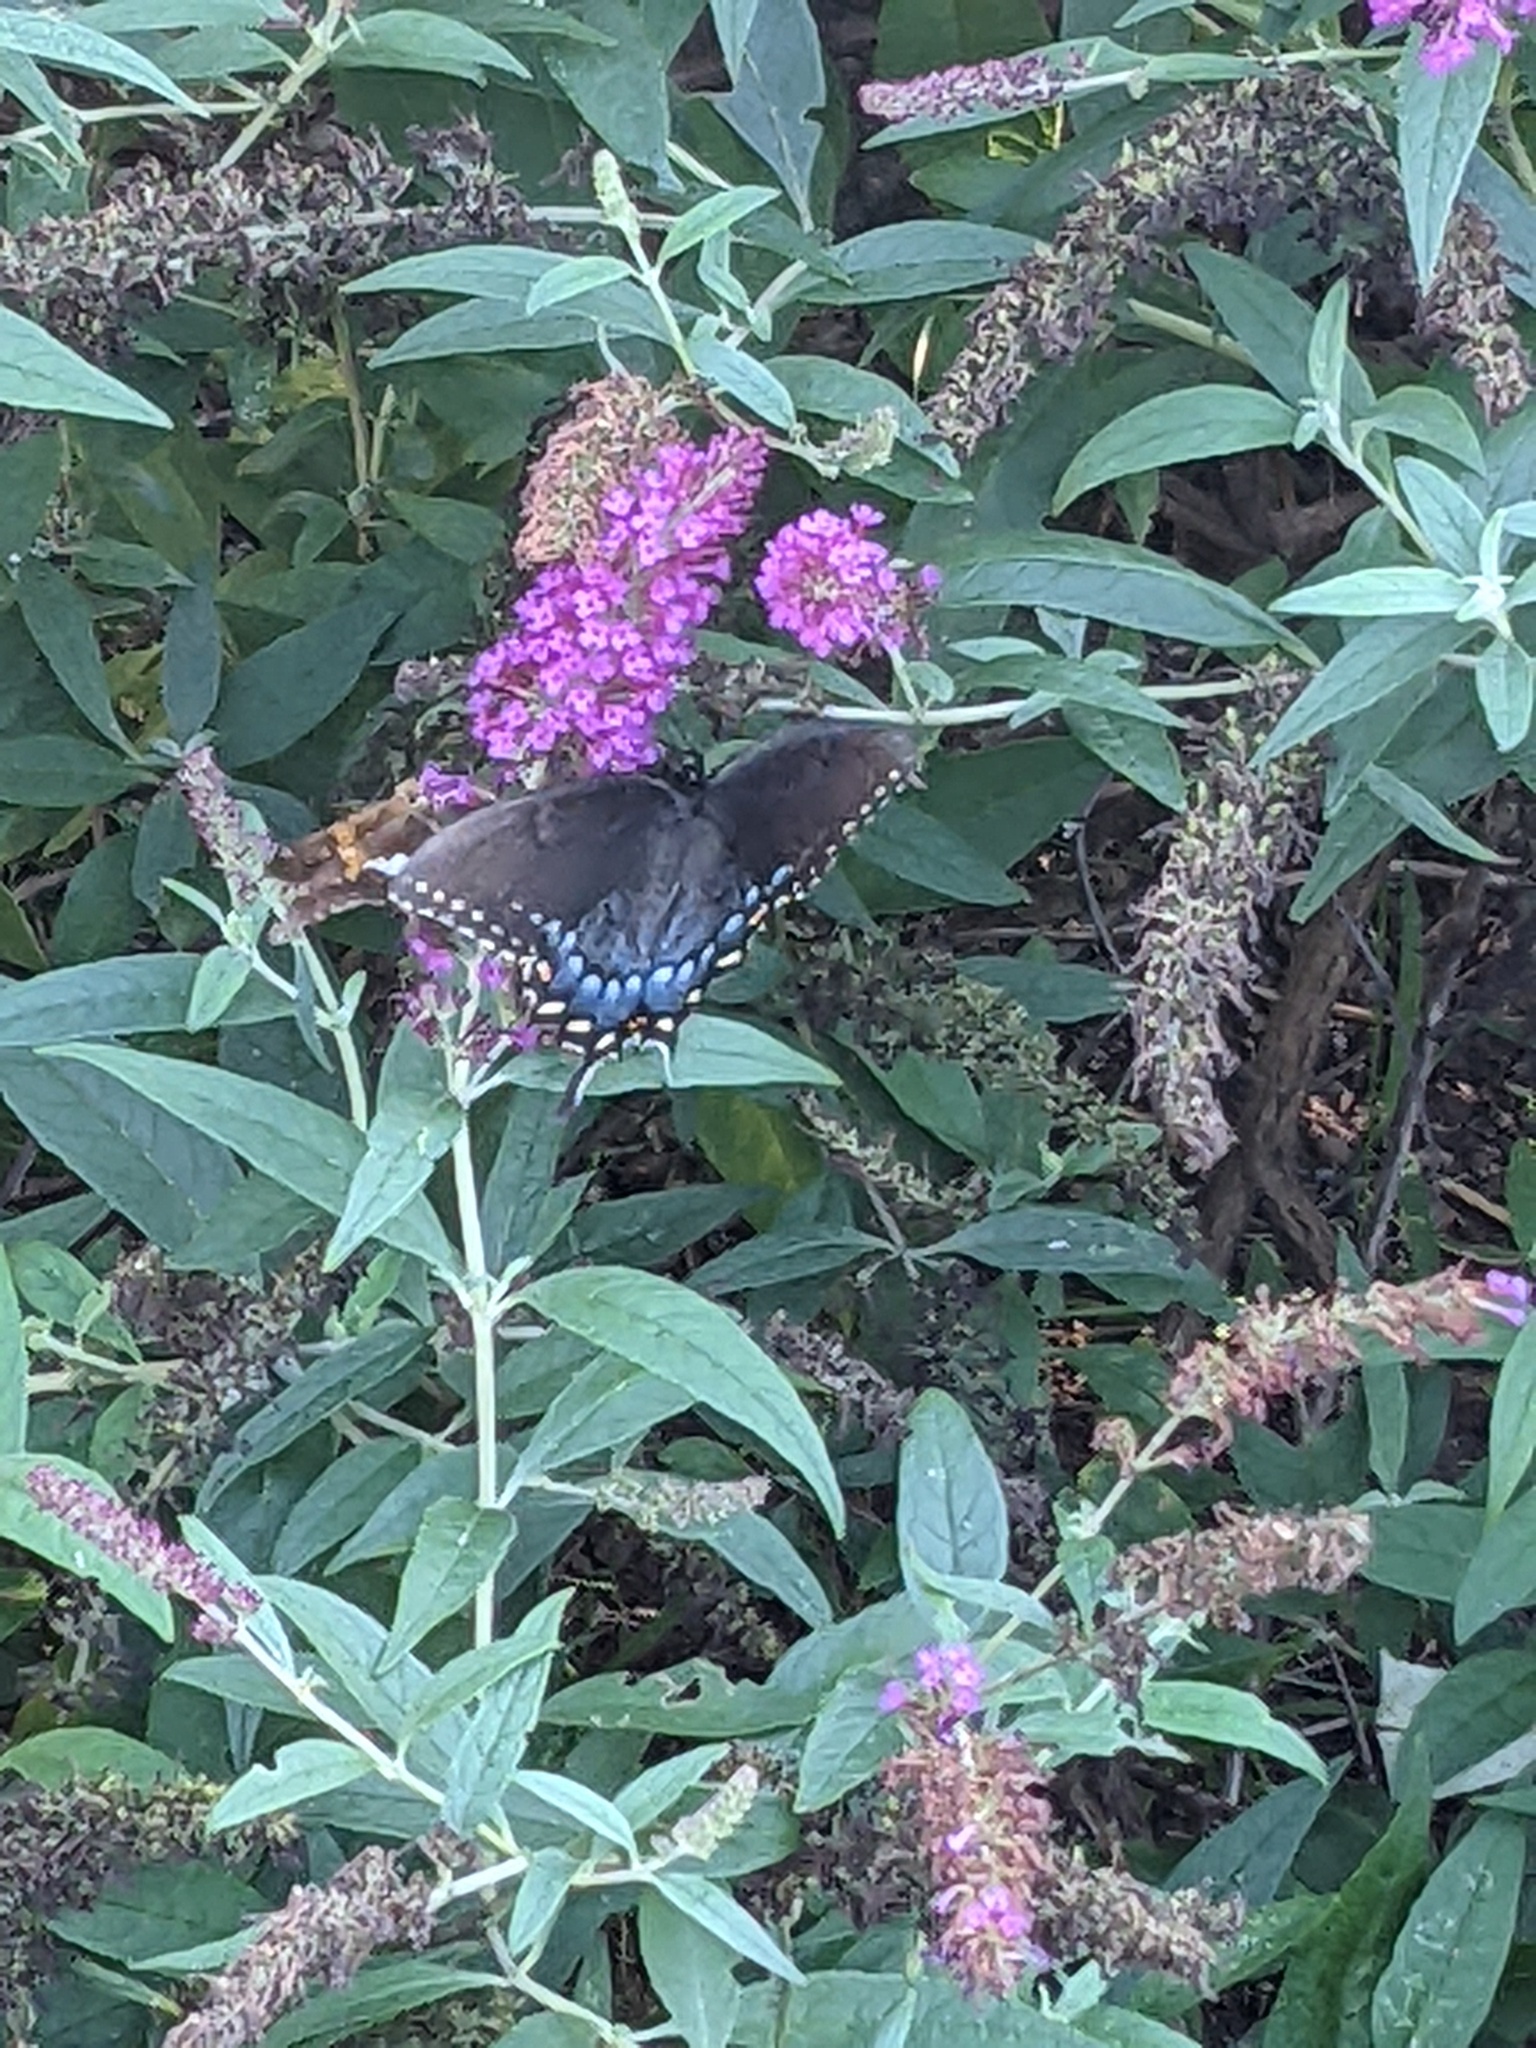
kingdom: Animalia
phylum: Arthropoda
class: Insecta
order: Lepidoptera
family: Papilionidae
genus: Papilio
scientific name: Papilio glaucus
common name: Tiger swallowtail
